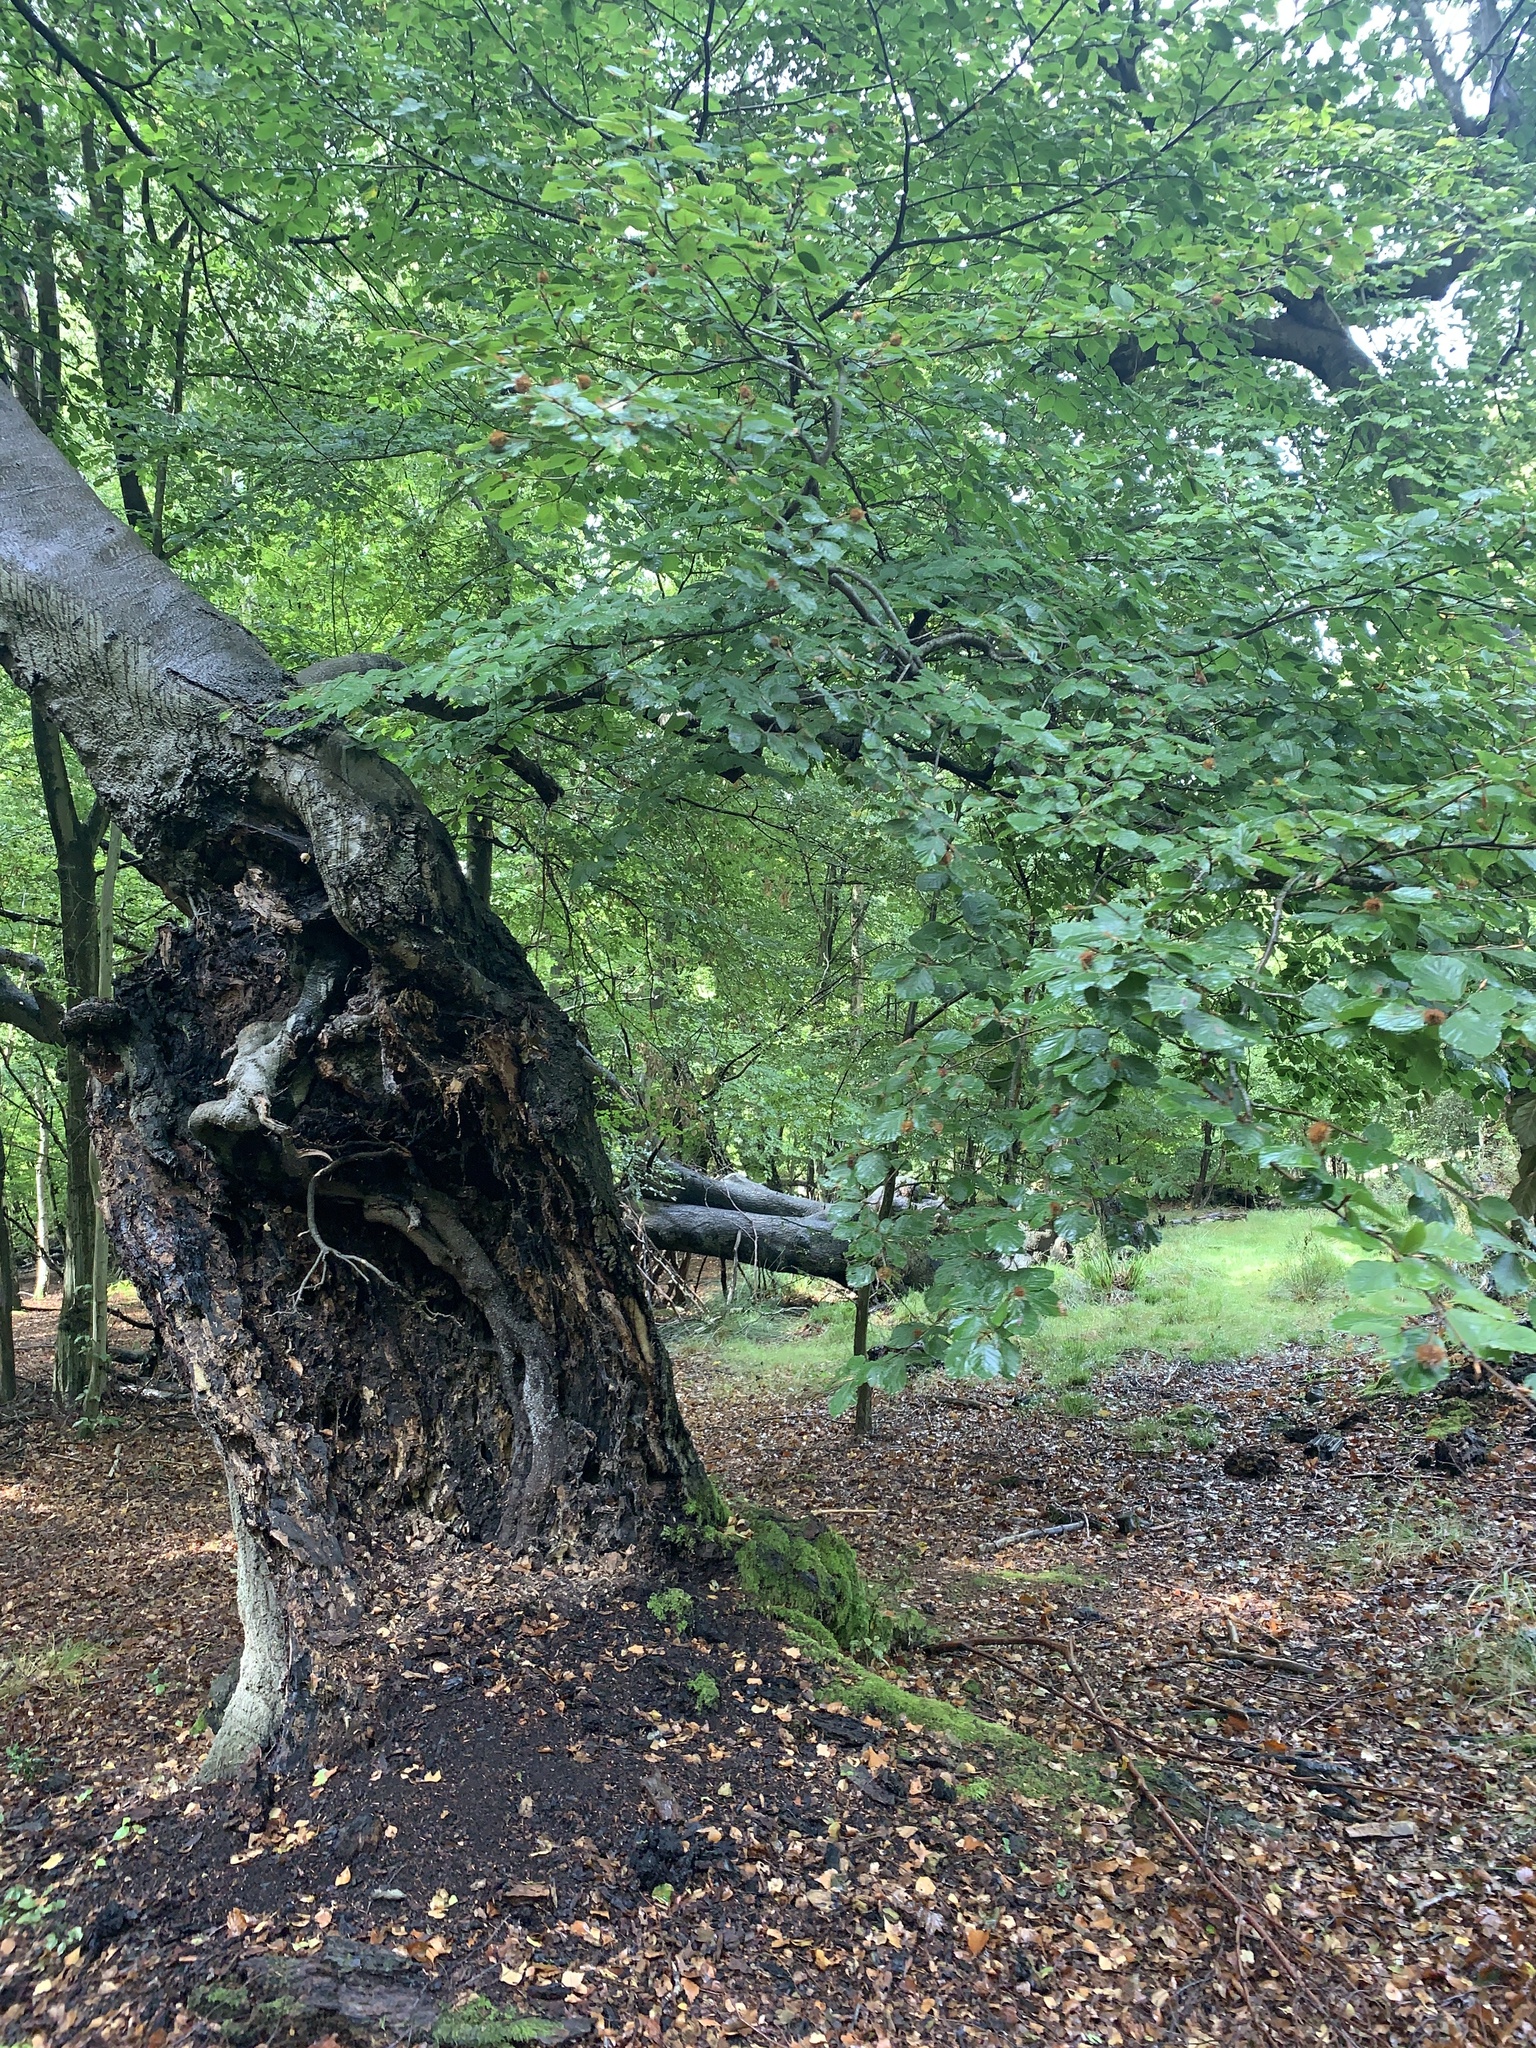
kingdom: Plantae
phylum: Tracheophyta
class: Magnoliopsida
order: Fagales
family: Fagaceae
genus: Fagus
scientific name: Fagus sylvatica
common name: Beech
